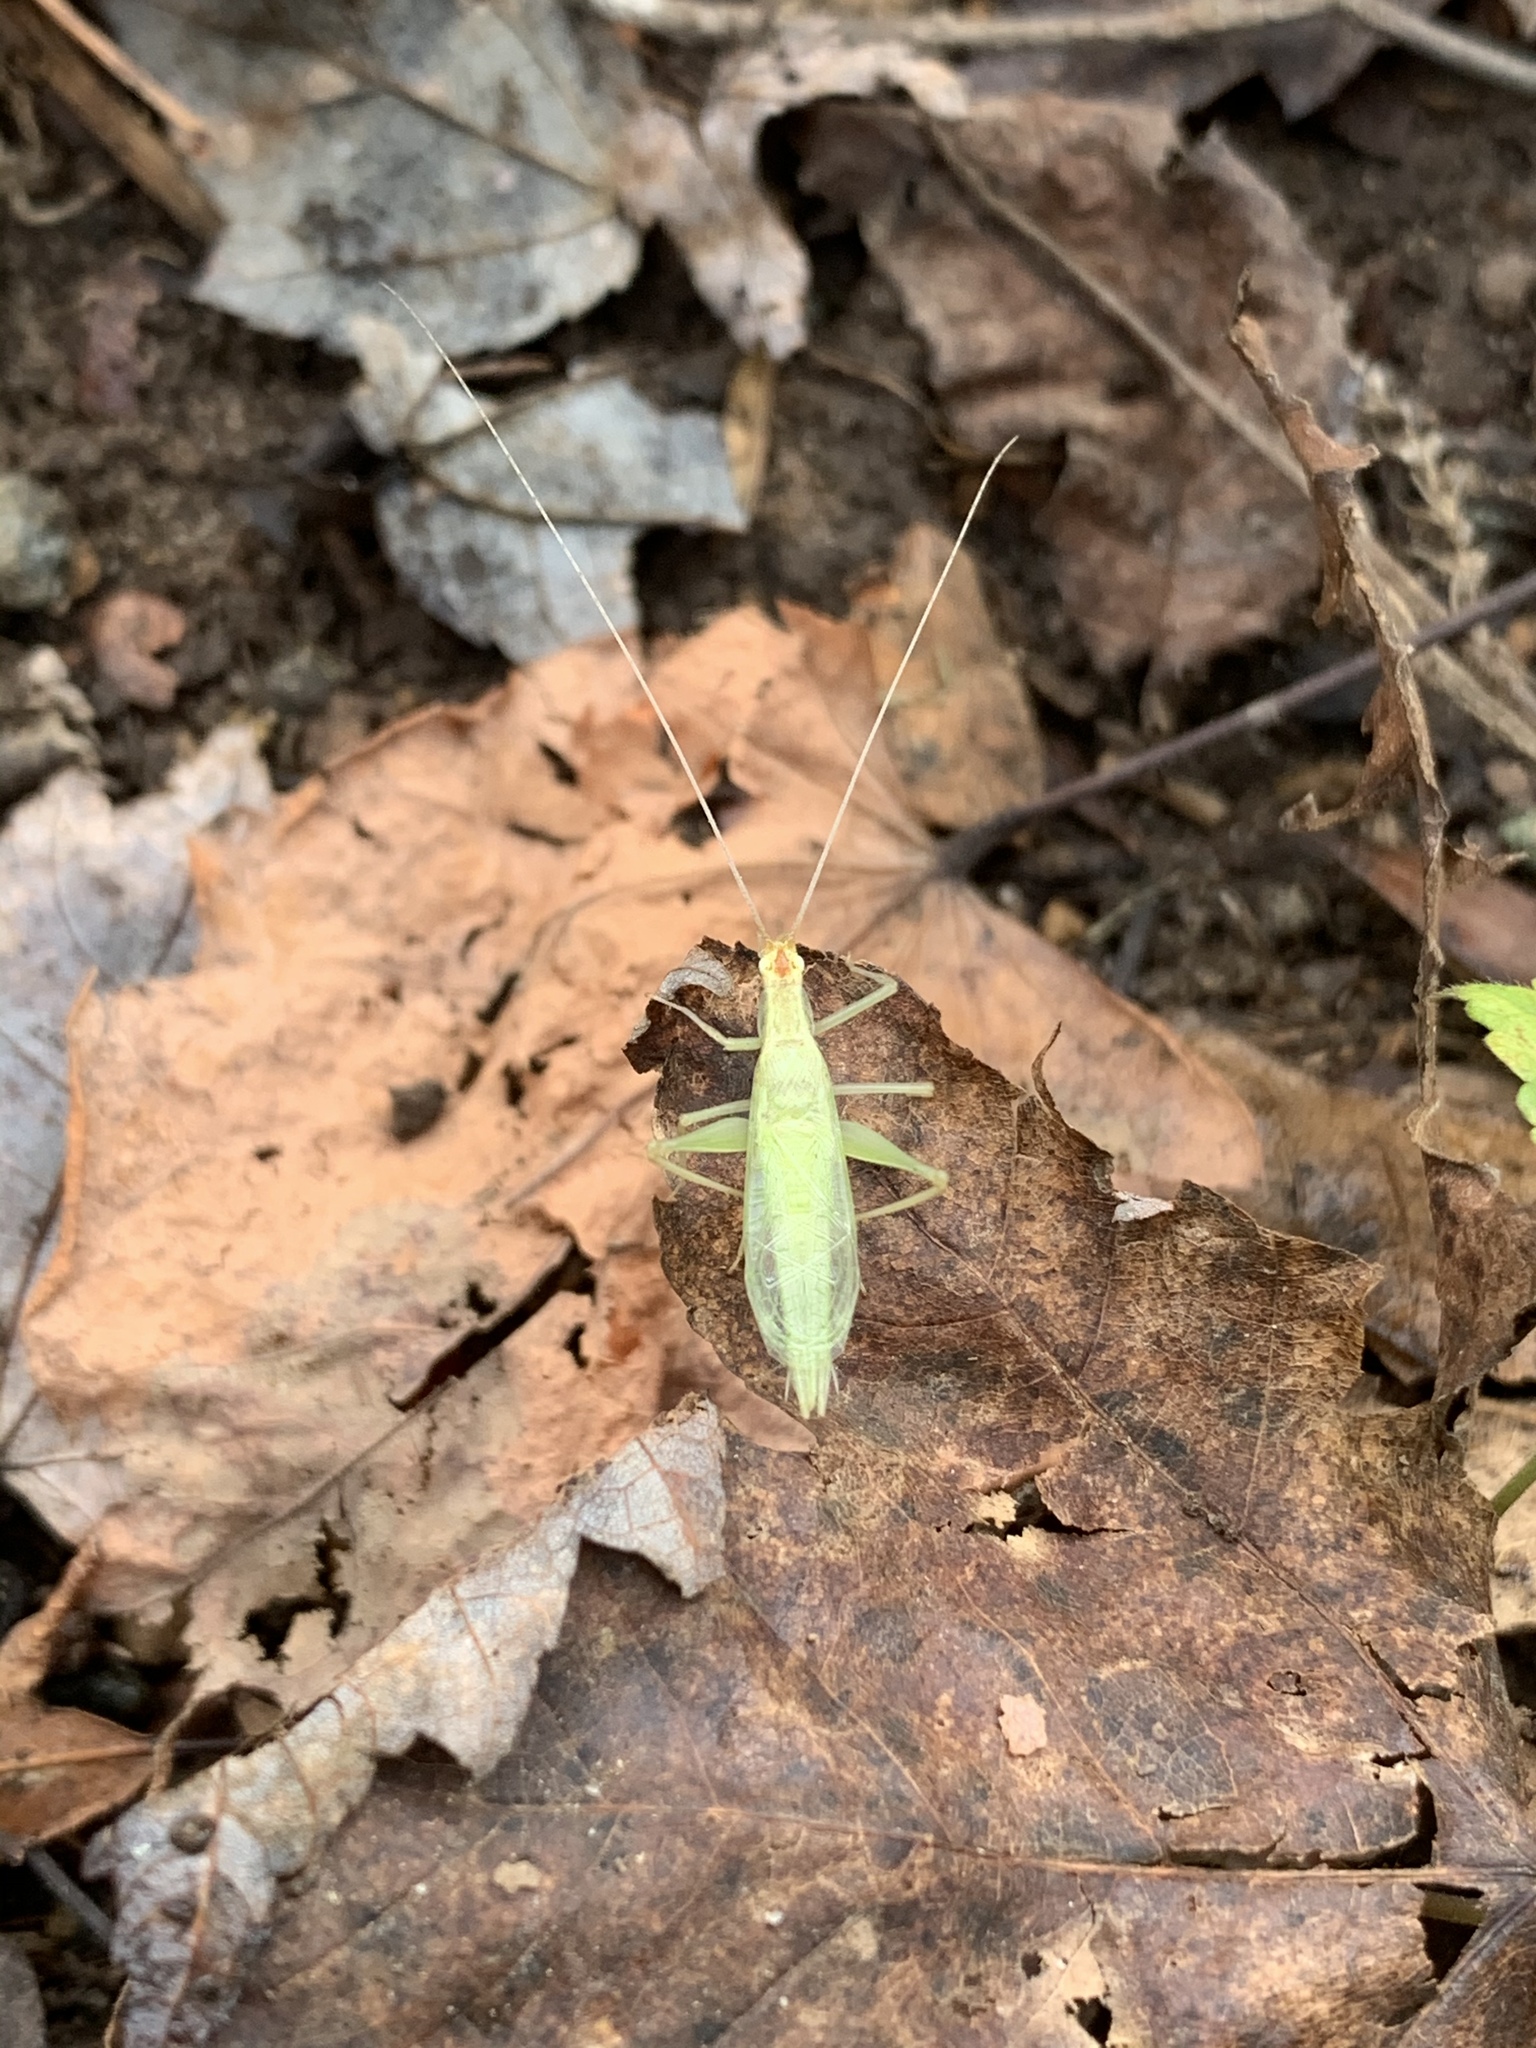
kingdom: Animalia
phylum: Arthropoda
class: Insecta
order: Orthoptera
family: Gryllidae
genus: Oecanthus
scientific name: Oecanthus niveus
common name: Narrow-winged tree cricket
